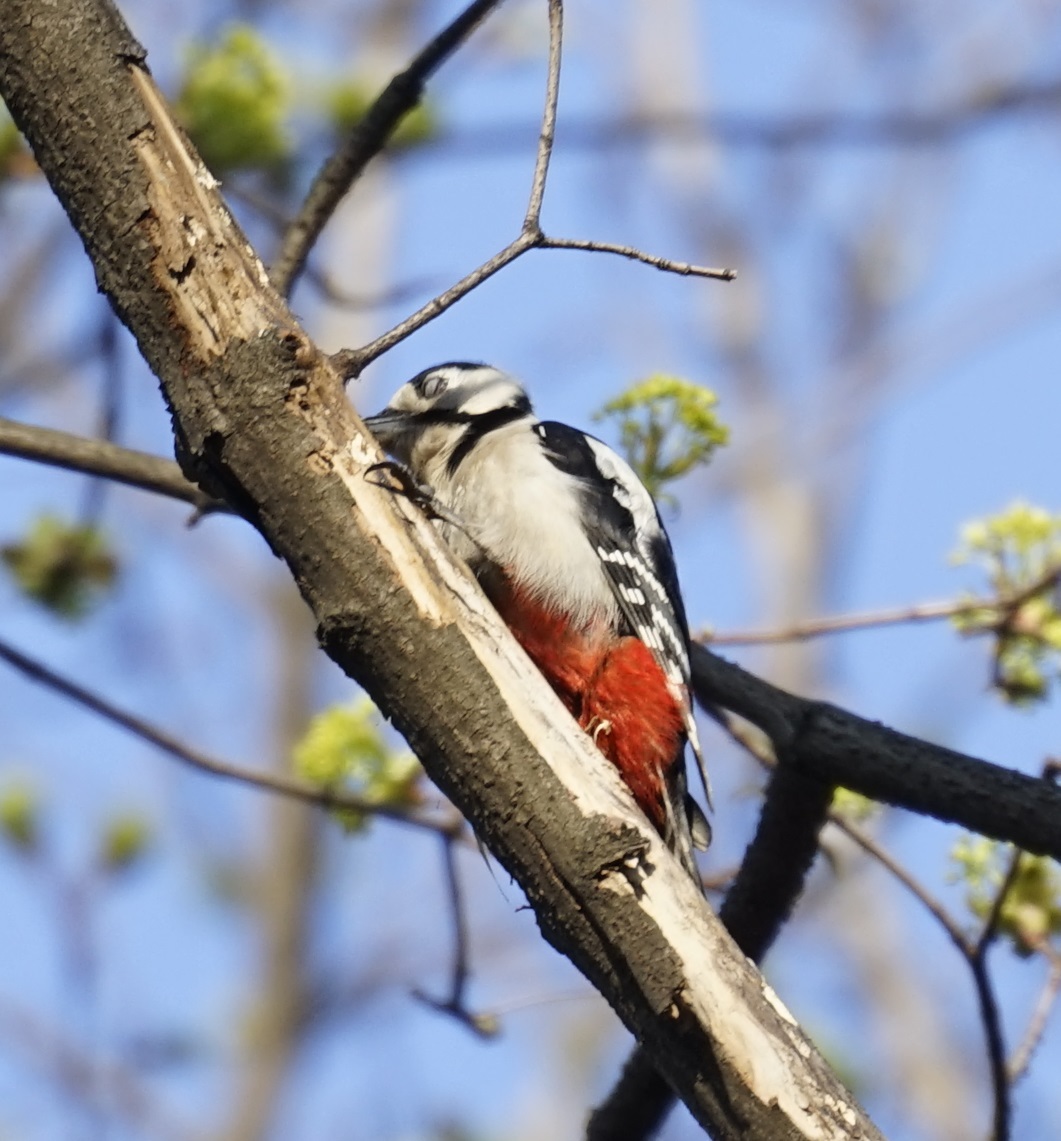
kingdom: Animalia
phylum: Chordata
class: Aves
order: Piciformes
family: Picidae
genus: Dendrocopos
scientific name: Dendrocopos major
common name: Great spotted woodpecker
